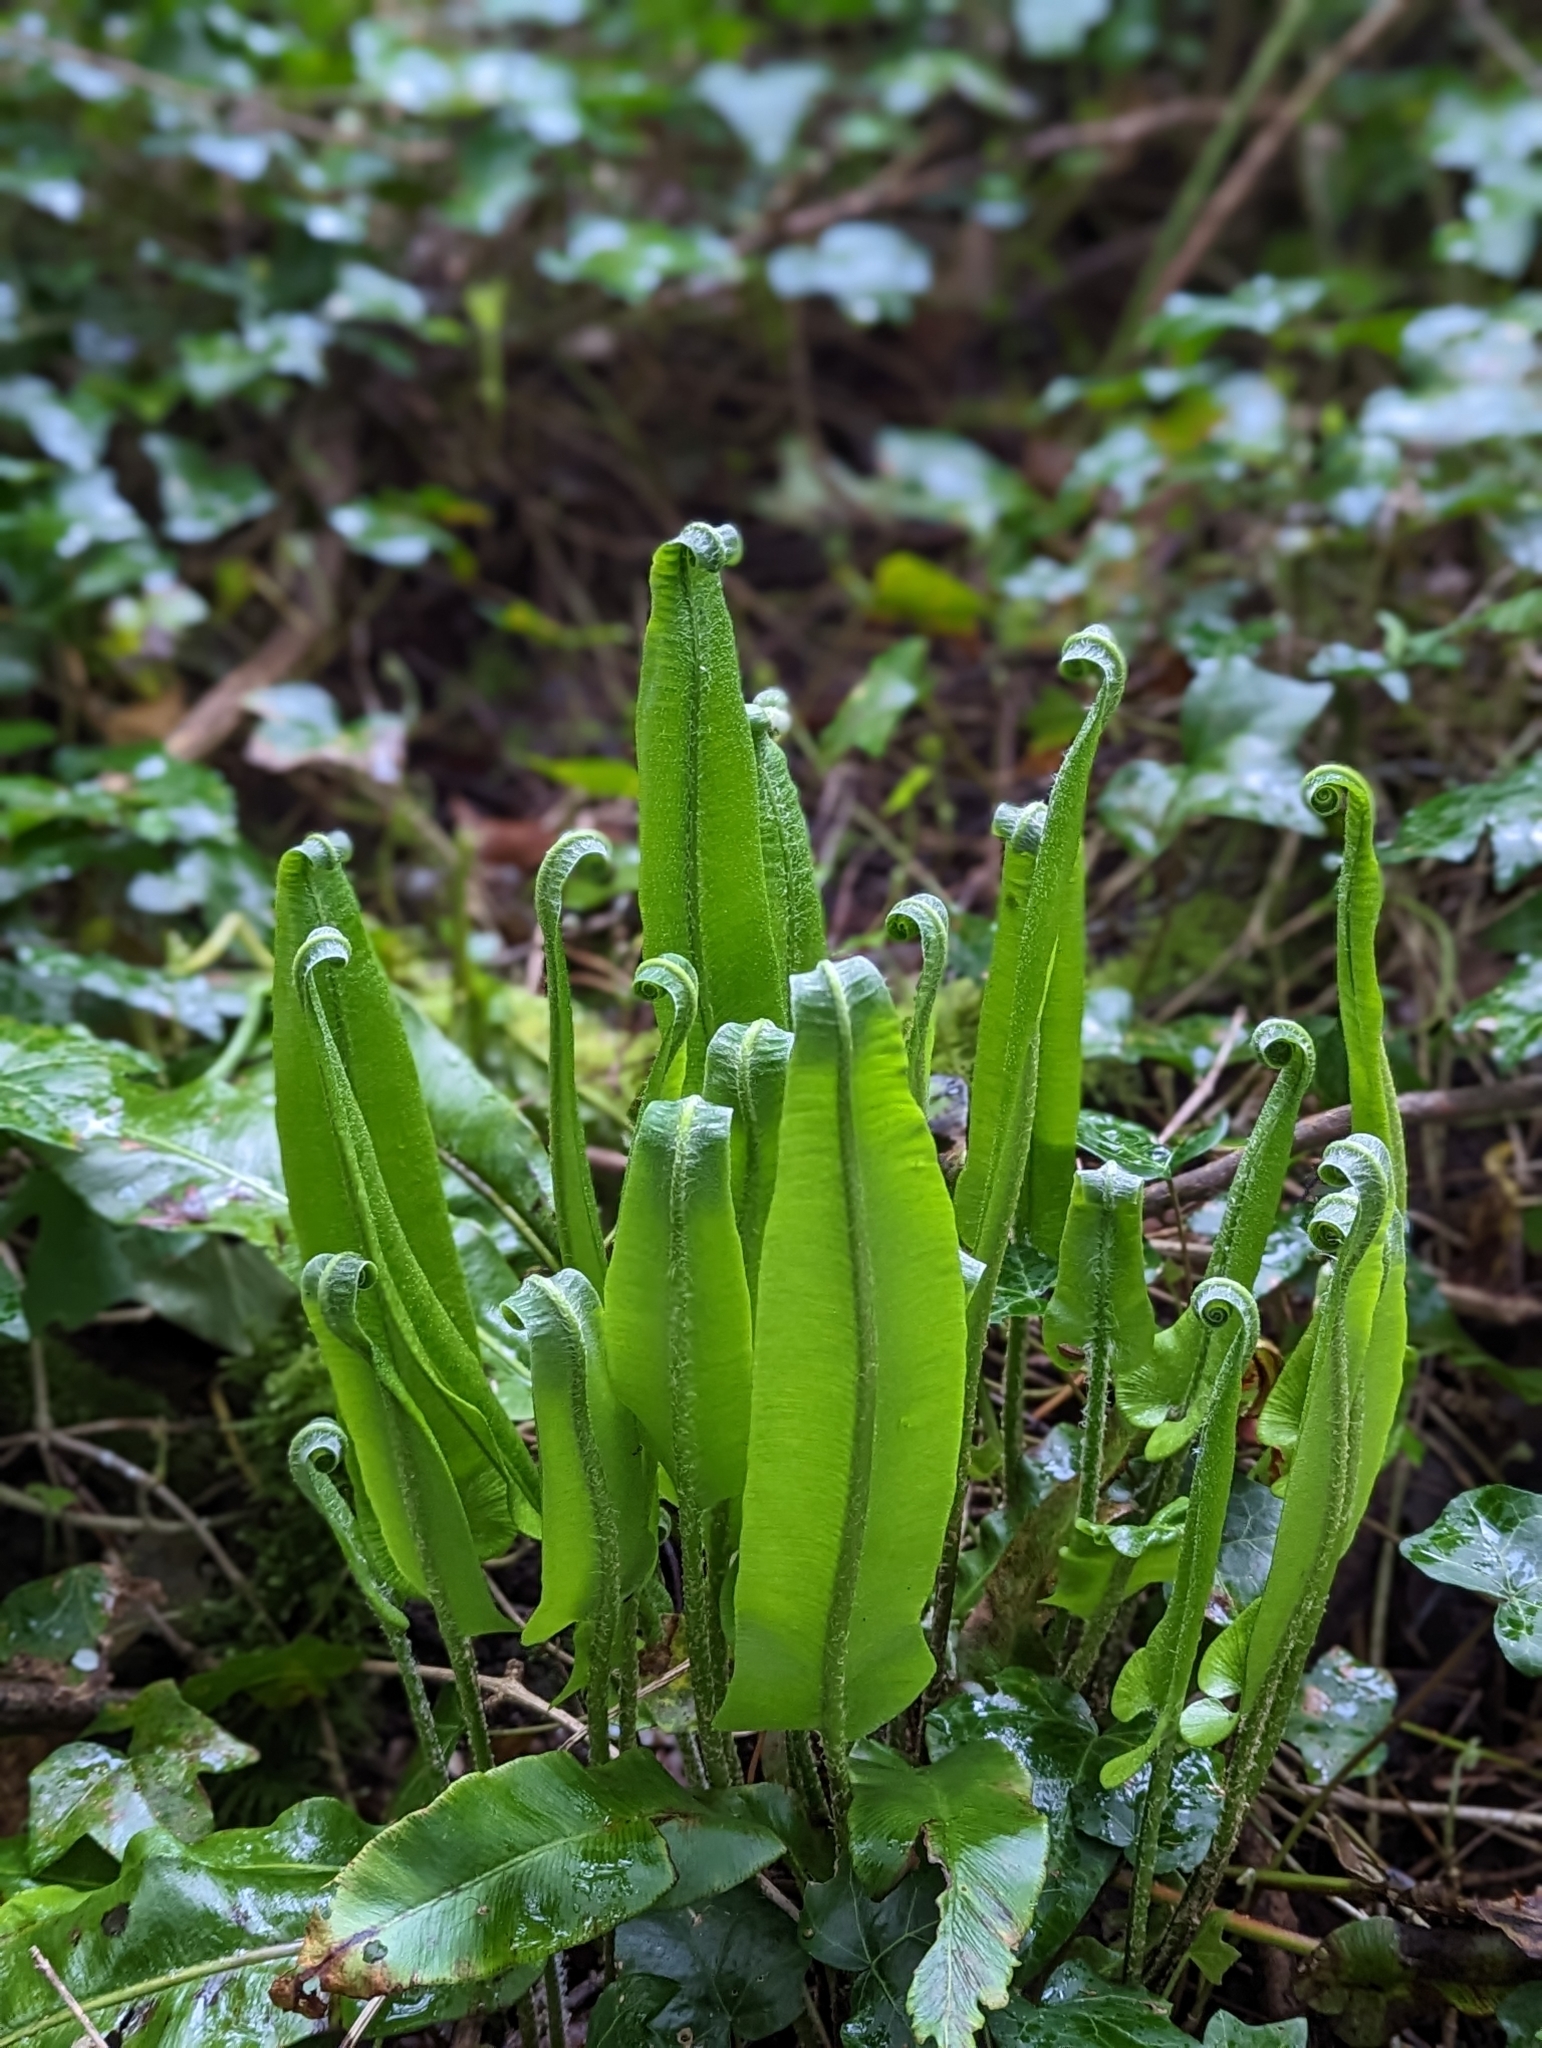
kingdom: Plantae
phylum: Tracheophyta
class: Polypodiopsida
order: Polypodiales
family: Aspleniaceae
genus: Asplenium
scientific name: Asplenium scolopendrium
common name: Hart's-tongue fern
